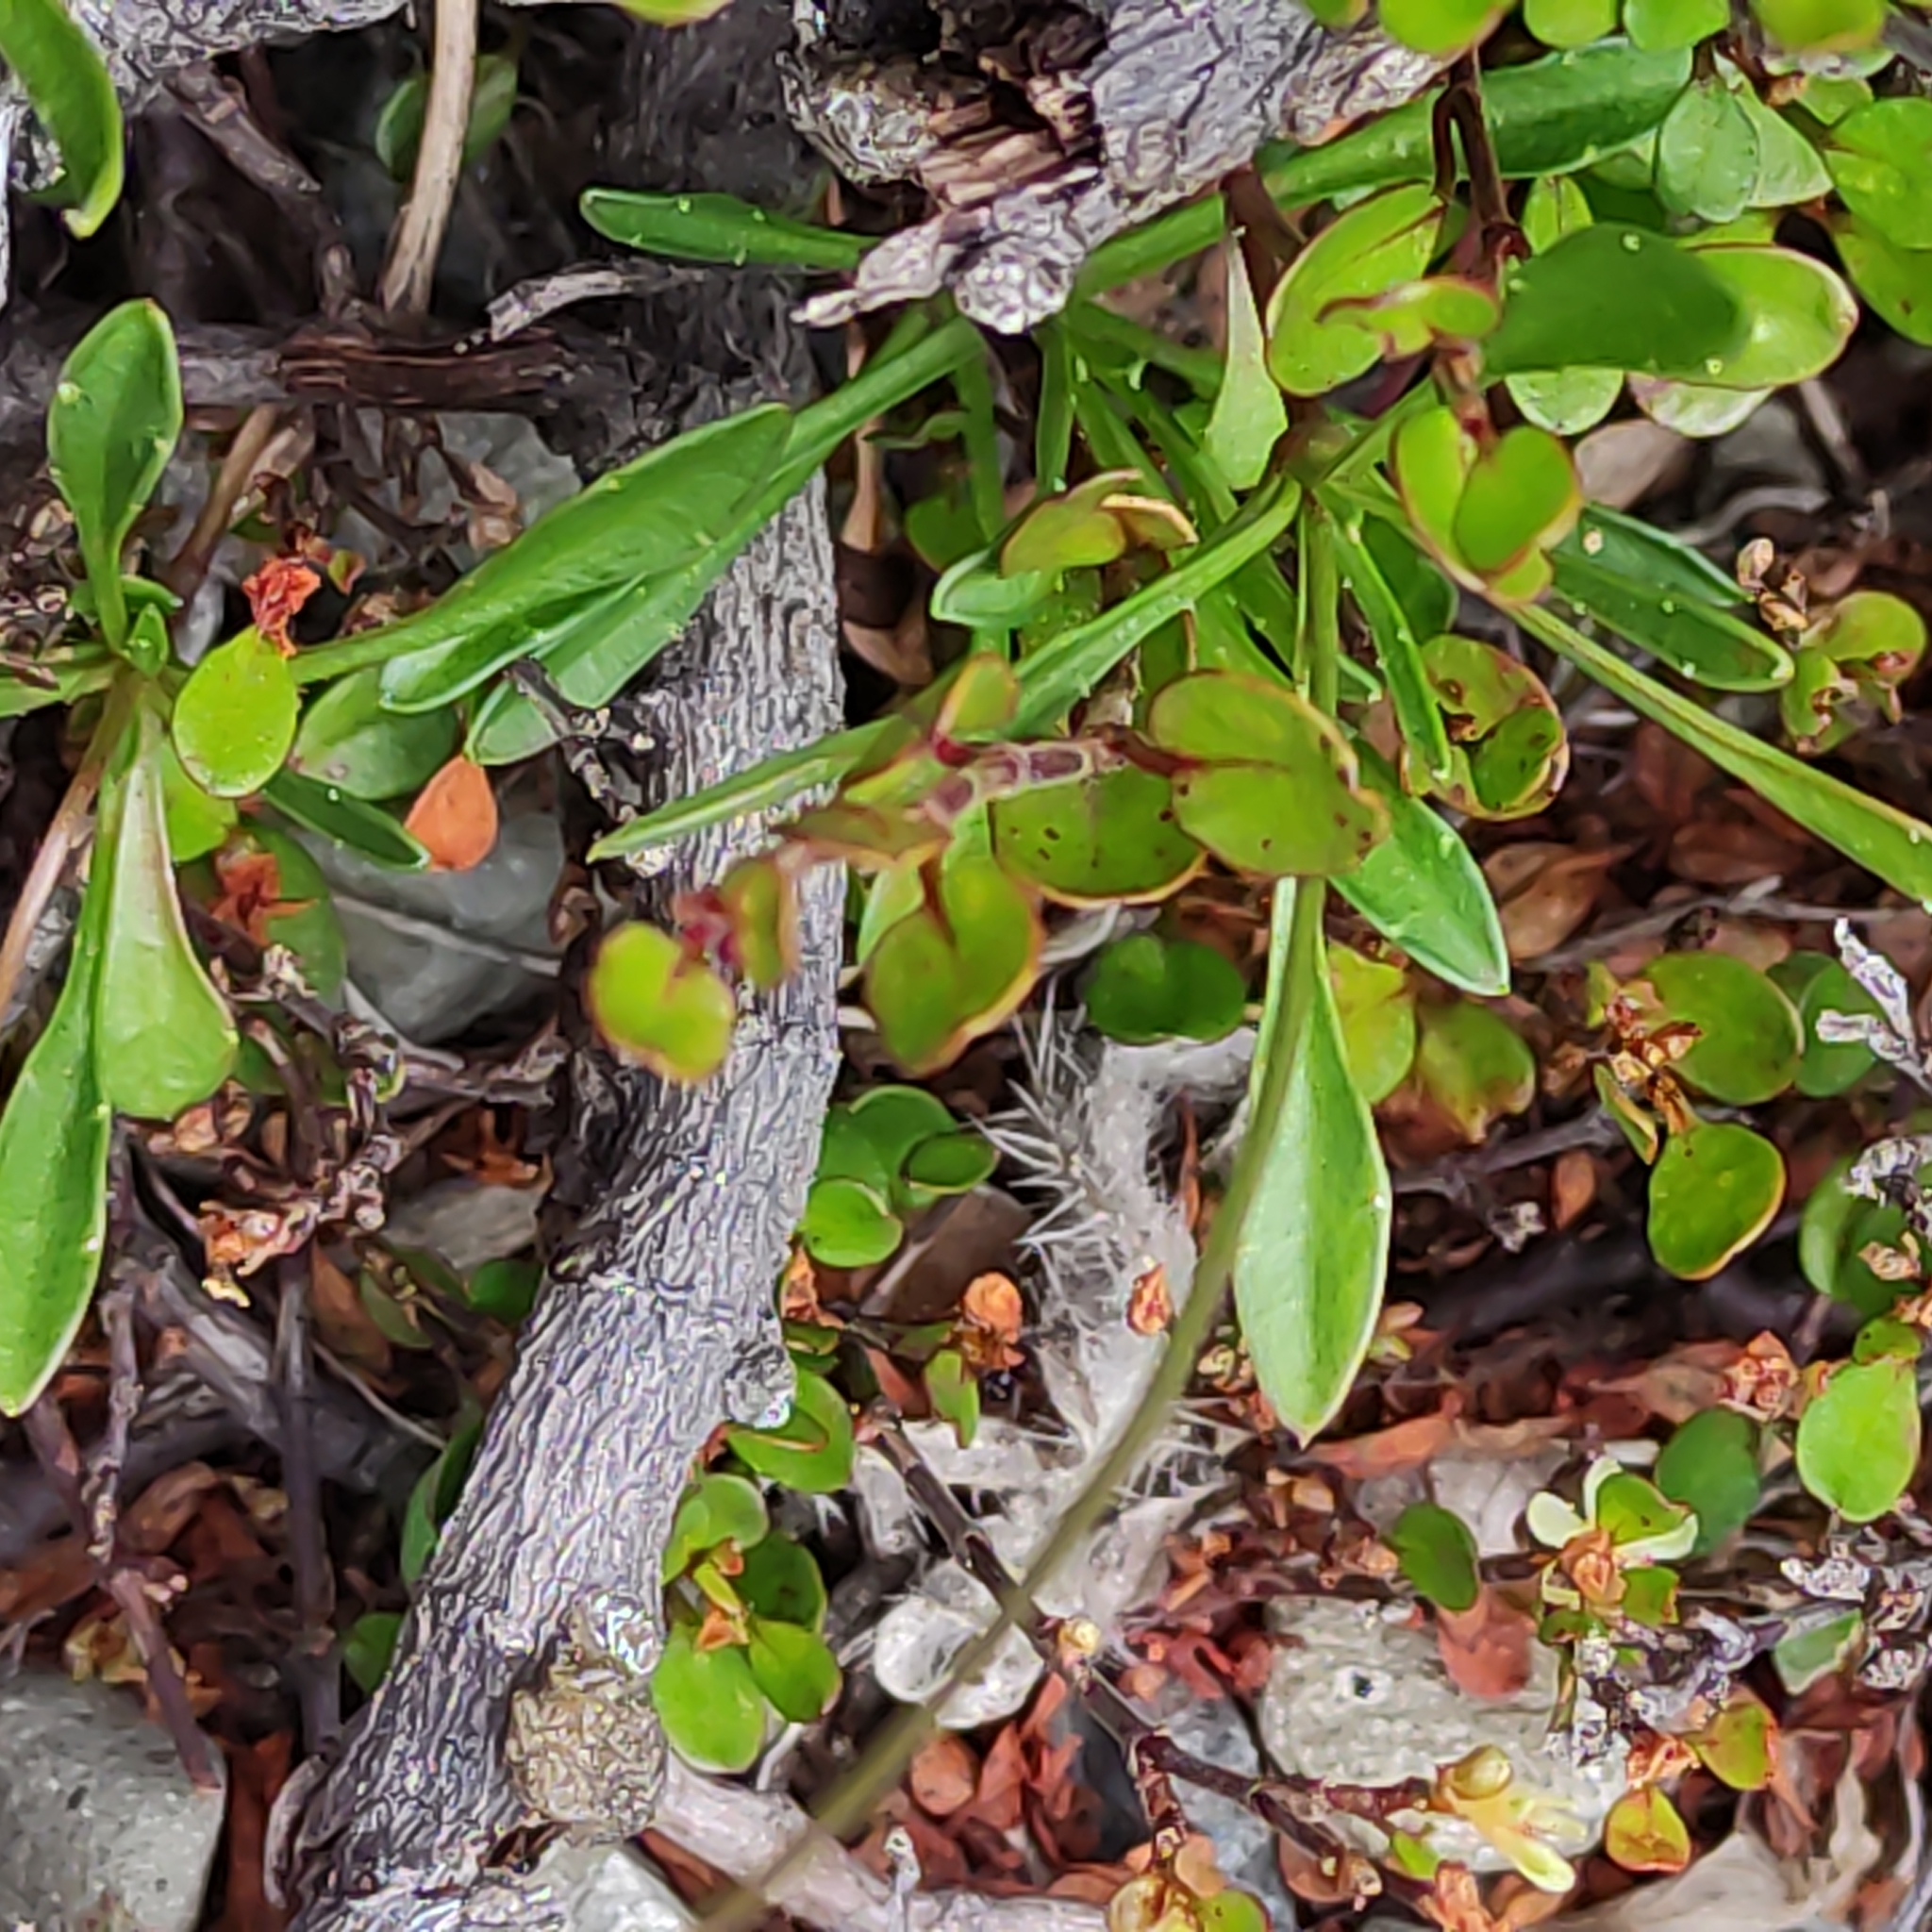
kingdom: Plantae
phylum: Tracheophyta
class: Magnoliopsida
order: Asterales
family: Campanulaceae
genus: Wahlenbergia
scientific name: Wahlenbergia albomarginata
